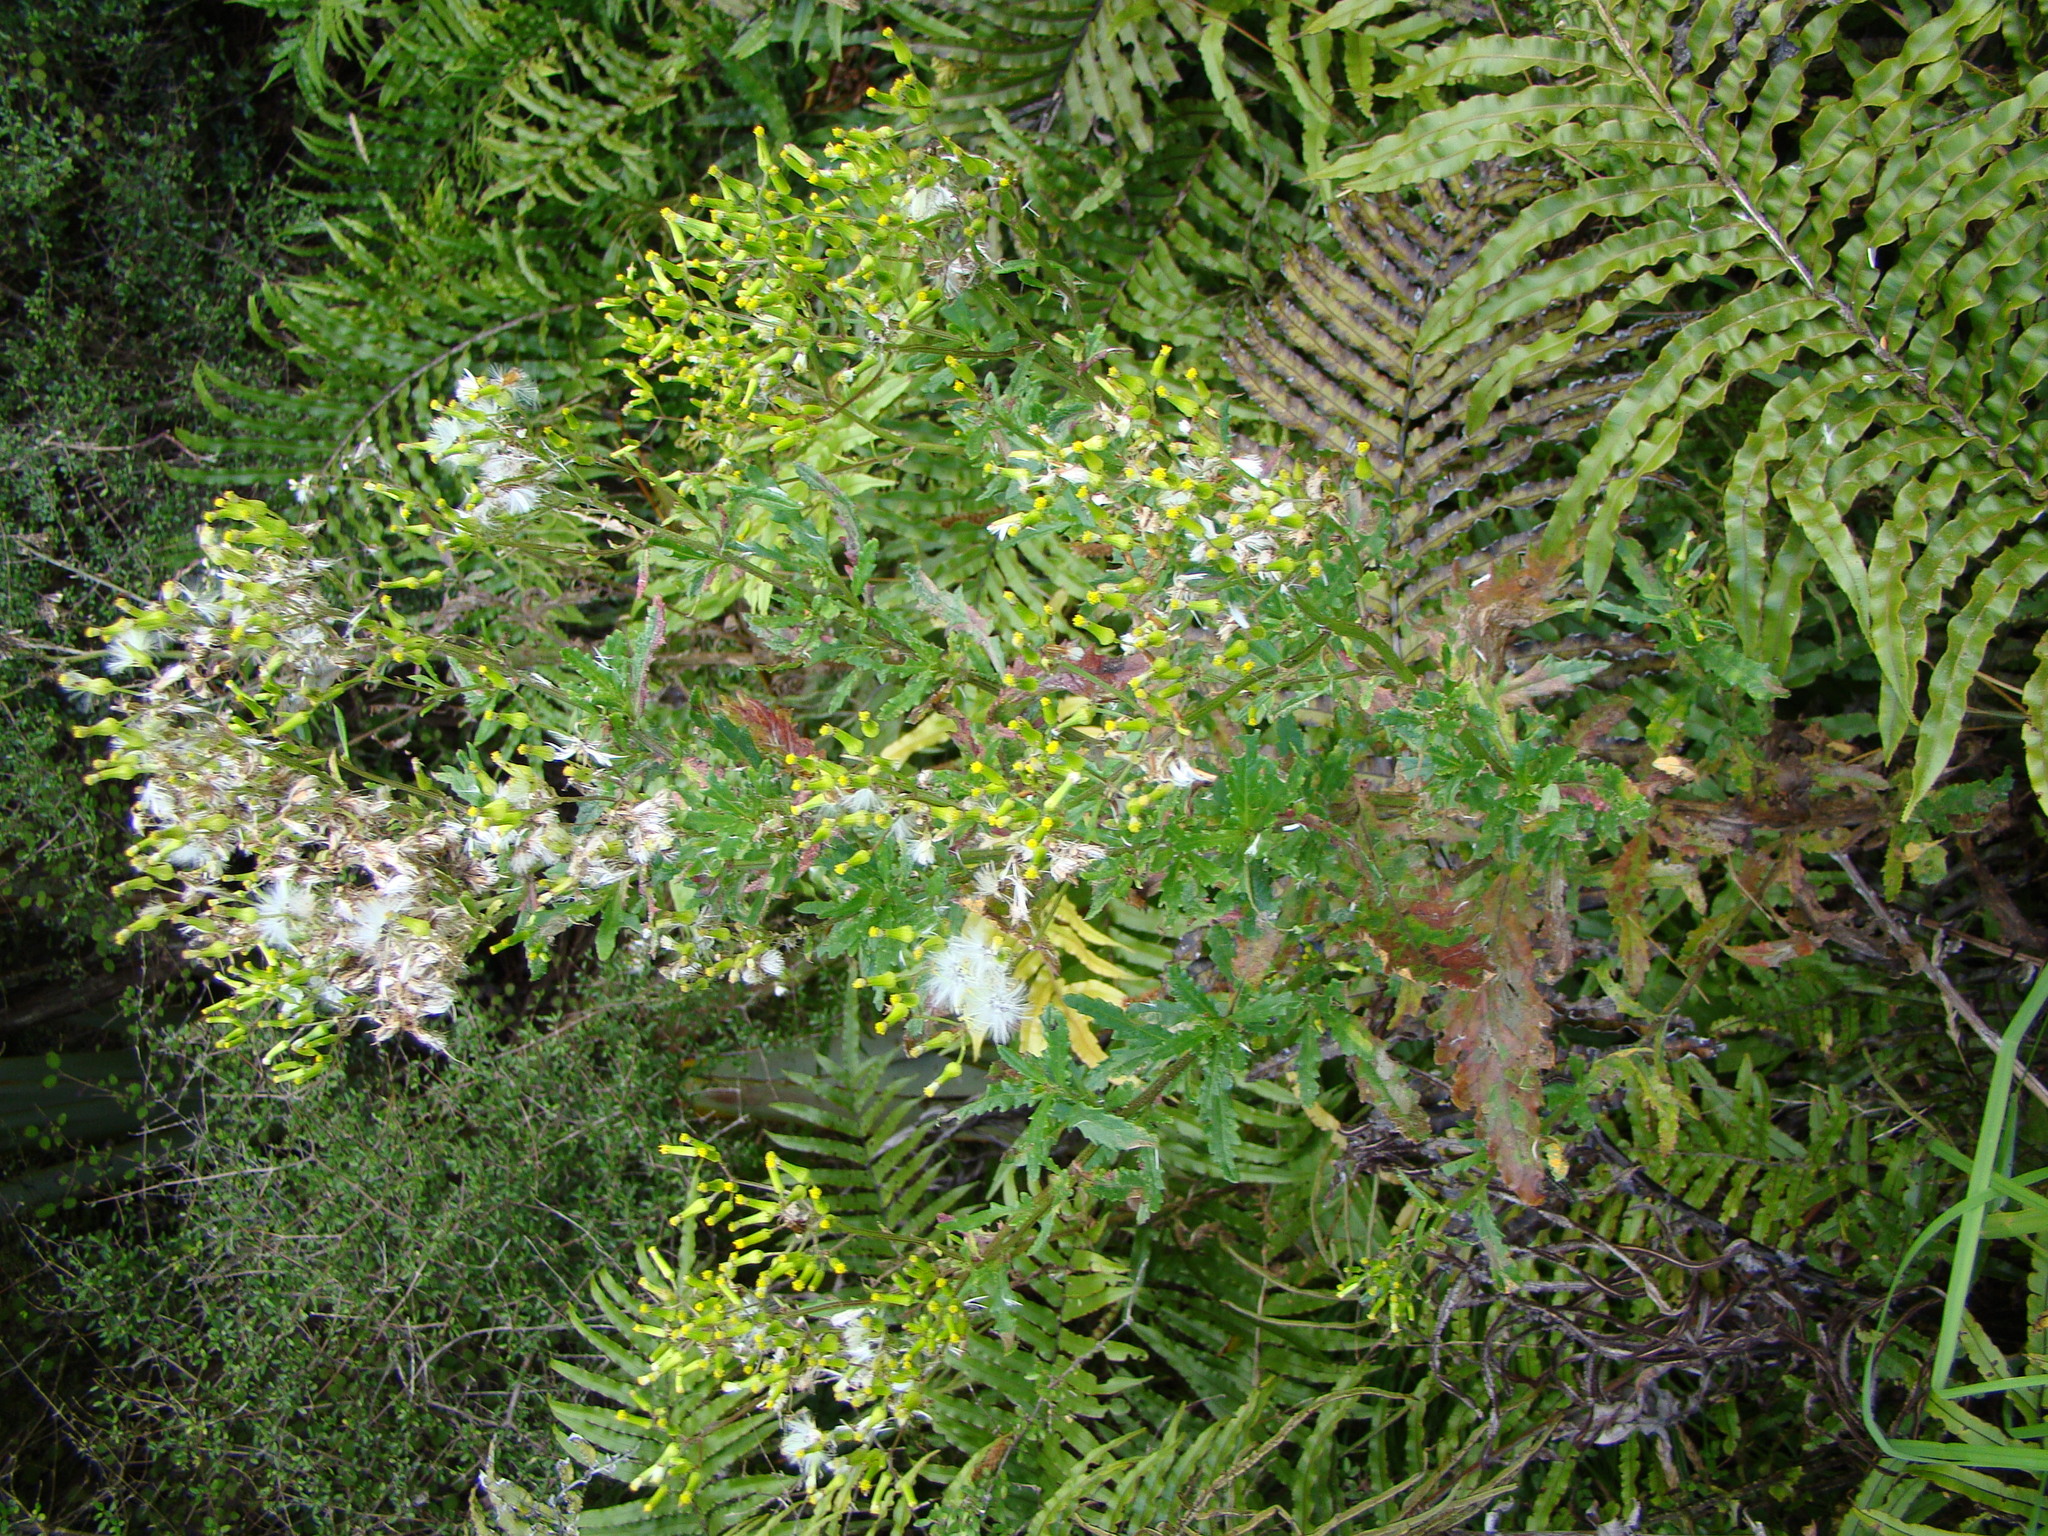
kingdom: Plantae
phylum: Tracheophyta
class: Magnoliopsida
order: Asterales
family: Asteraceae
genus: Senecio
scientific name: Senecio biserratus
